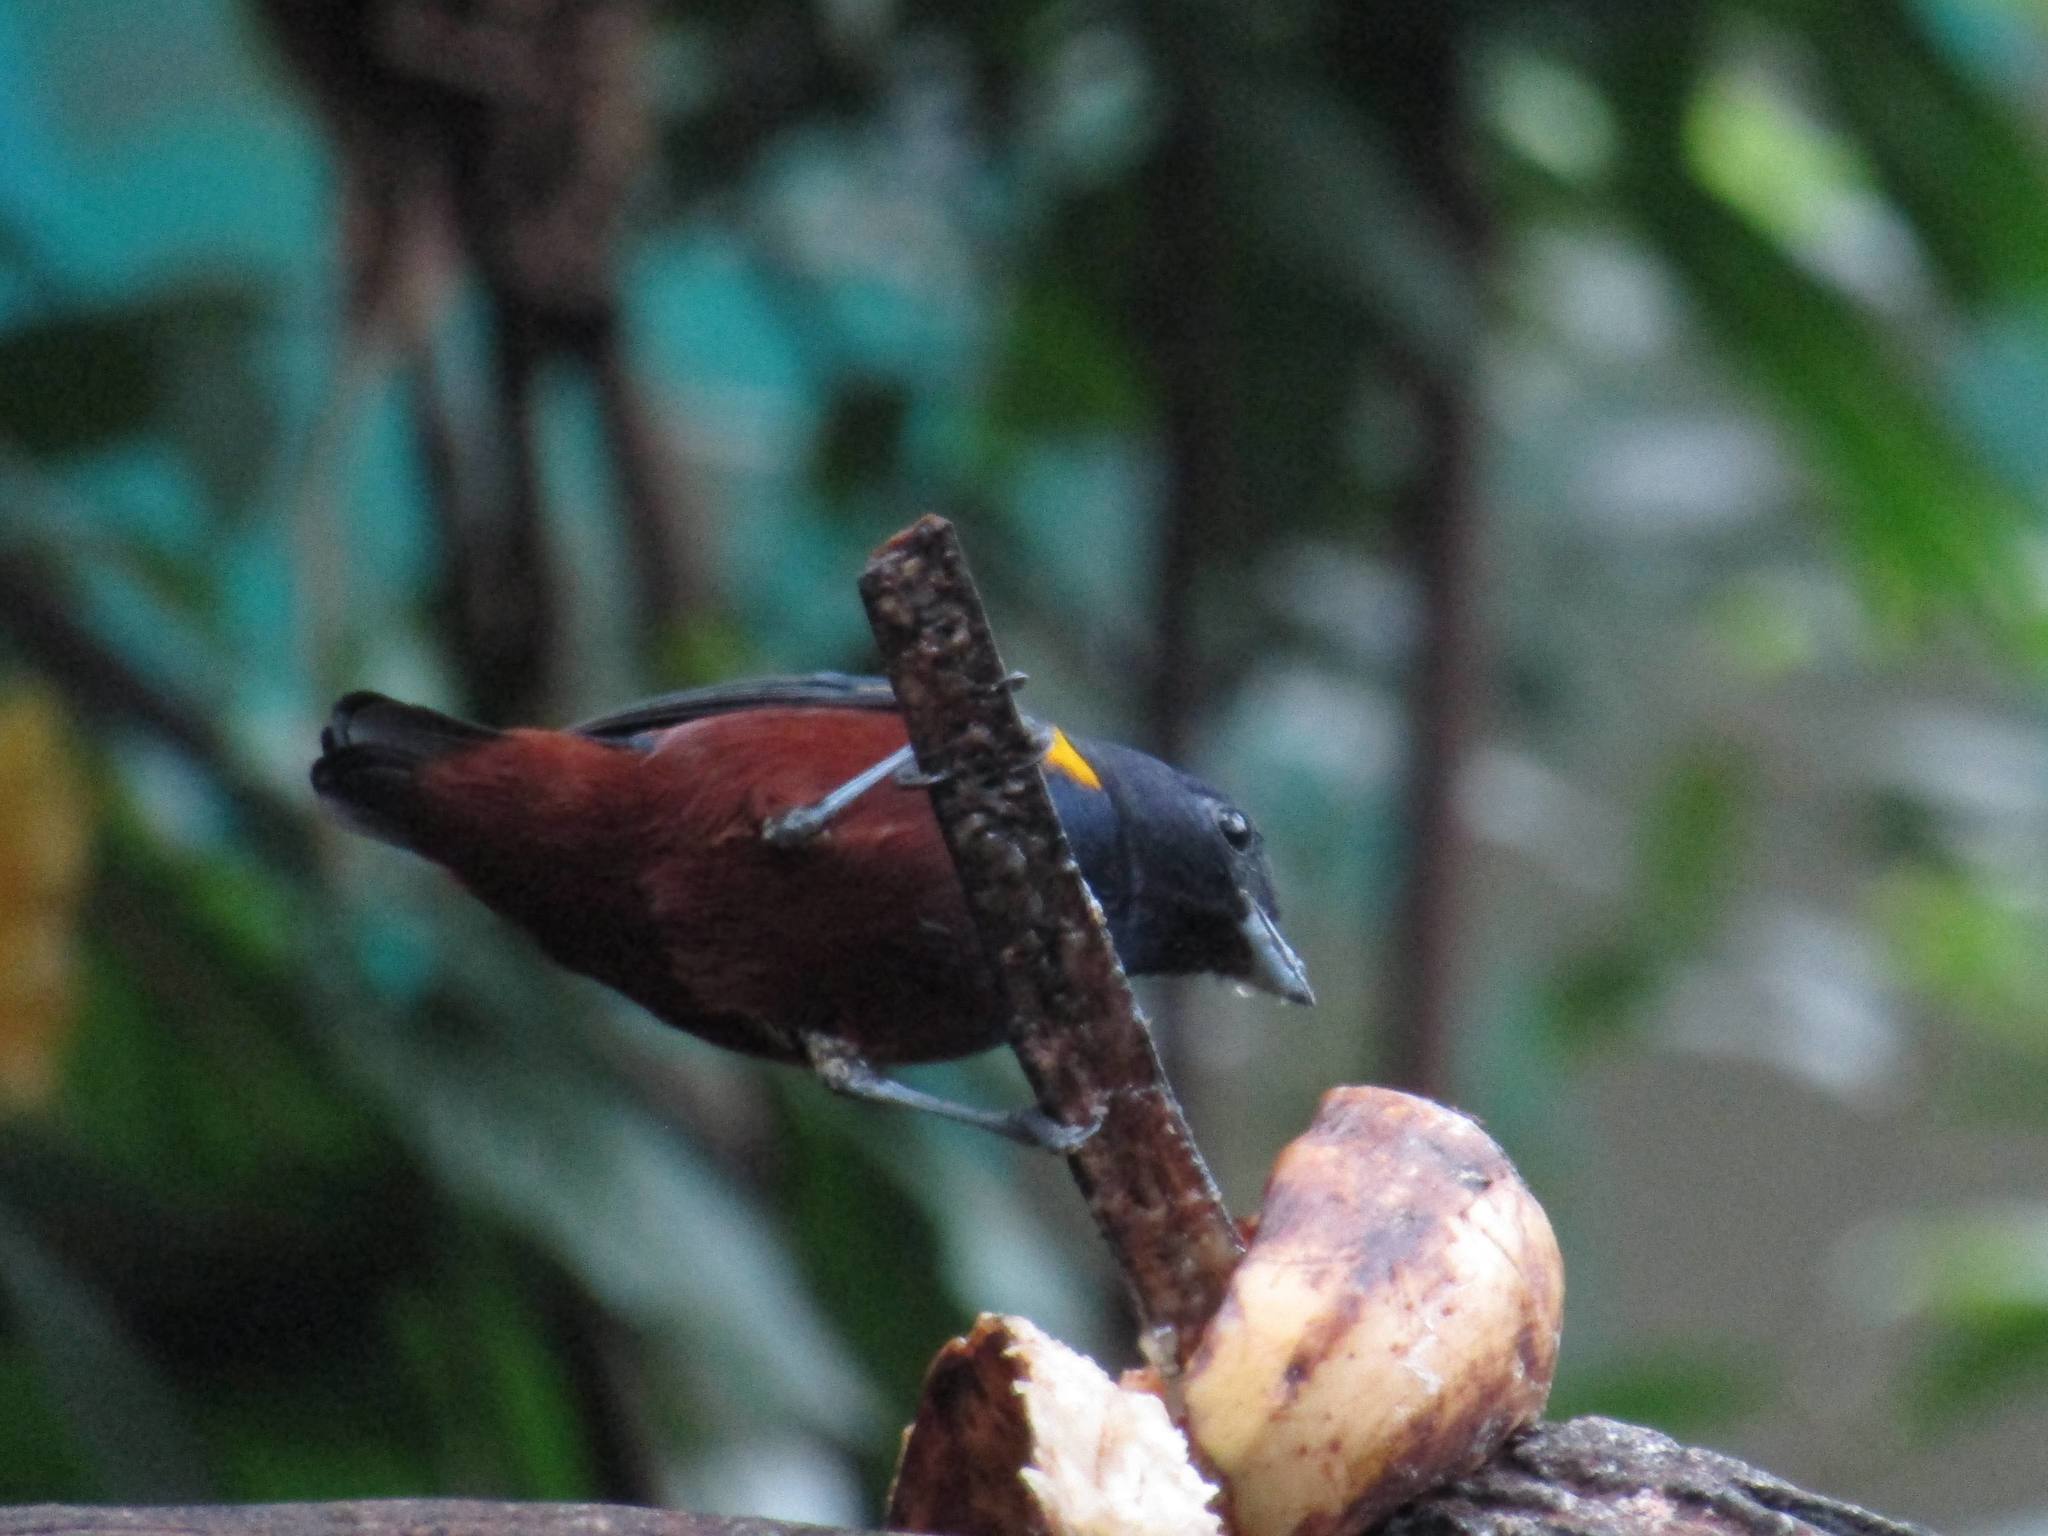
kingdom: Animalia
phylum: Chordata
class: Aves
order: Passeriformes
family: Fringillidae
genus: Euphonia
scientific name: Euphonia pectoralis
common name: Chestnut-bellied euphonia
